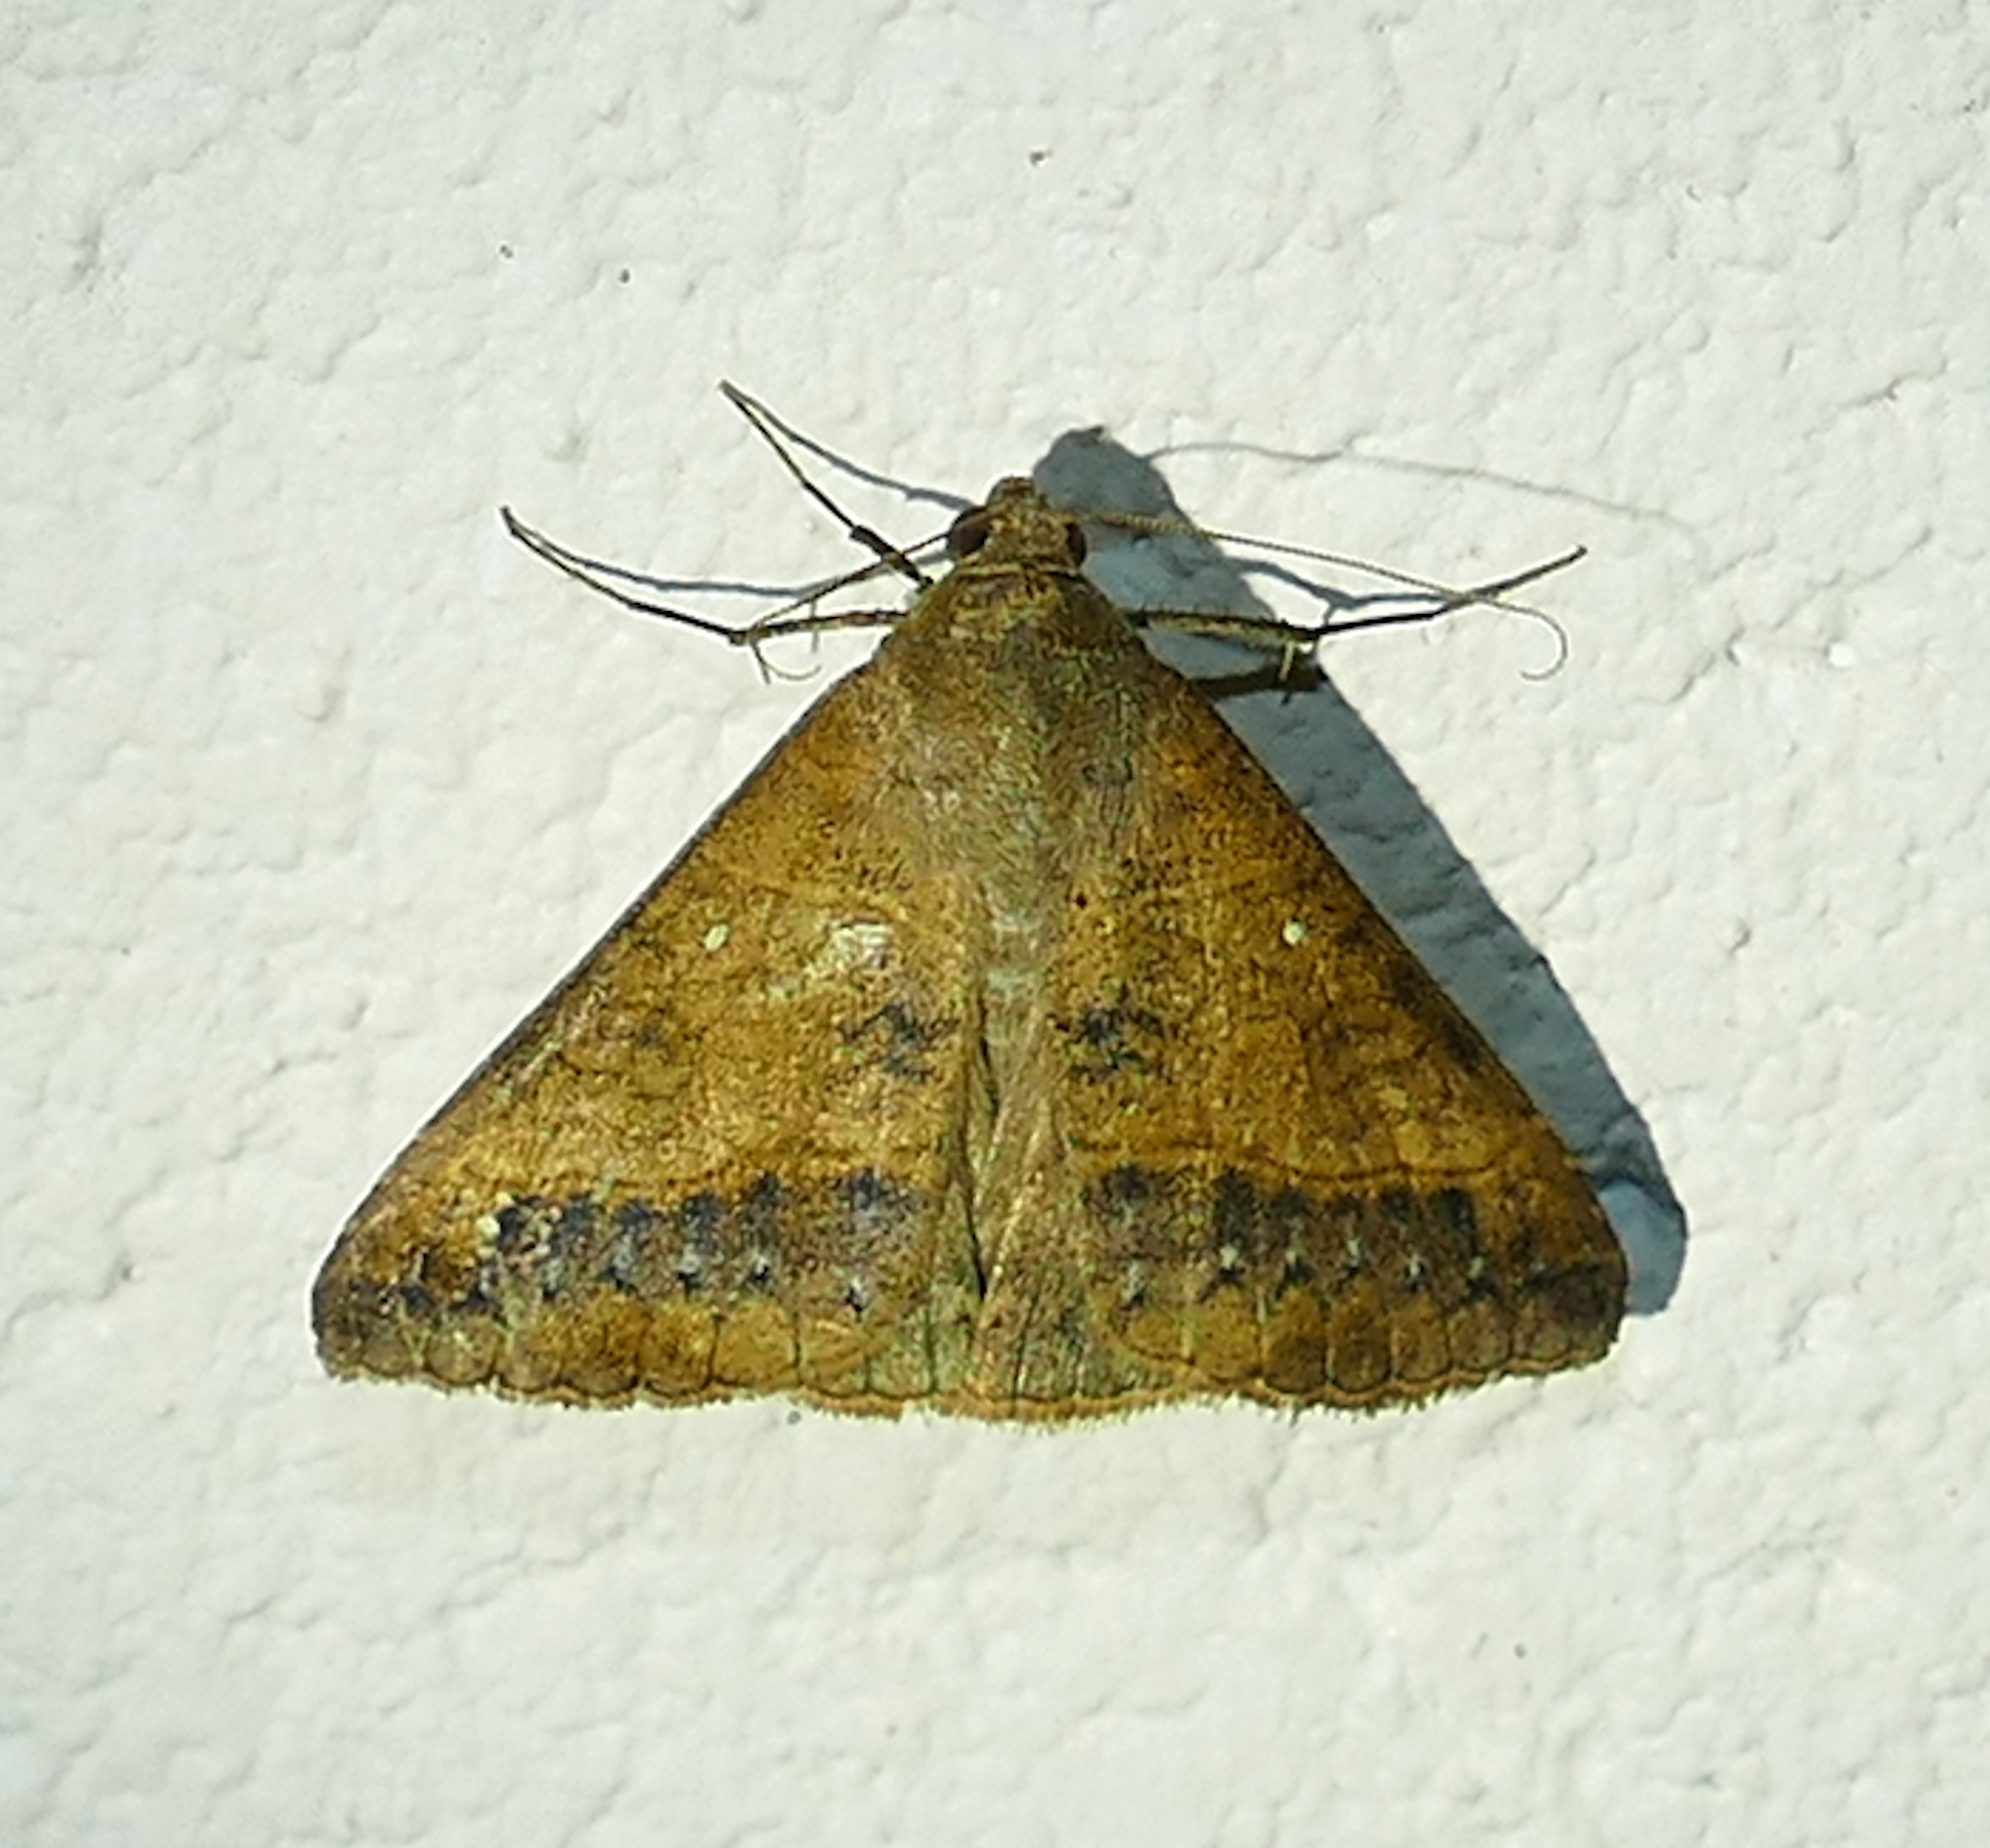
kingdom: Animalia
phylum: Arthropoda
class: Insecta
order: Lepidoptera
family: Erebidae
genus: Mocis
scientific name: Mocis disseverans
